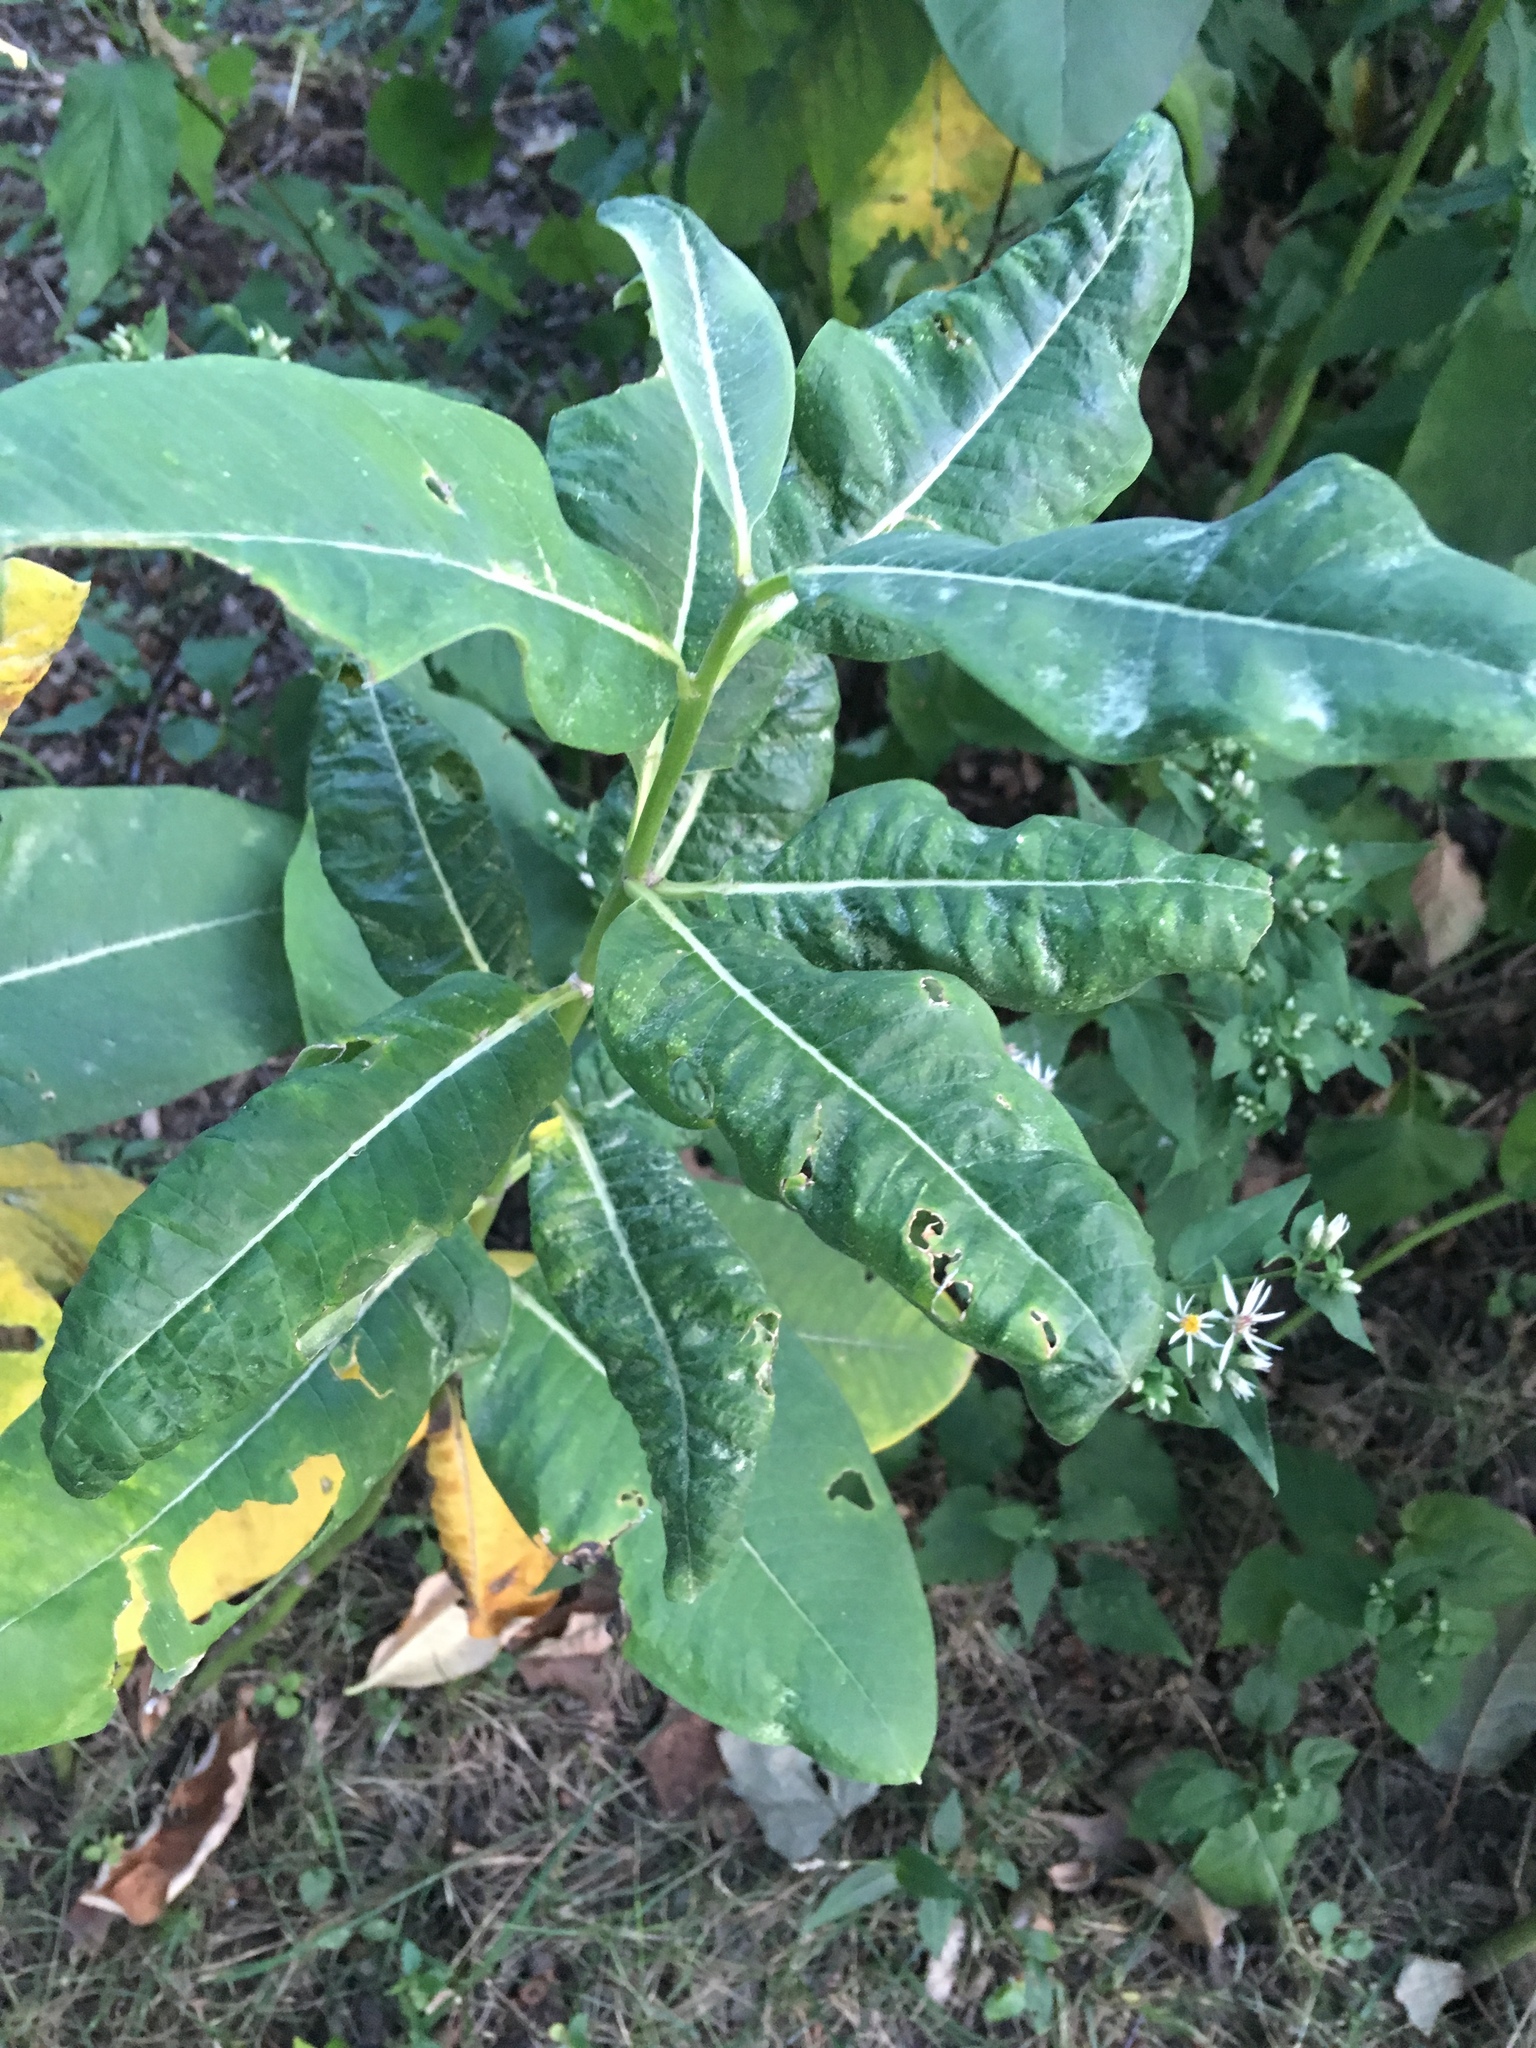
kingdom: Plantae
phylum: Tracheophyta
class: Magnoliopsida
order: Gentianales
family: Apocynaceae
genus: Asclepias
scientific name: Asclepias syriaca
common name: Common milkweed
